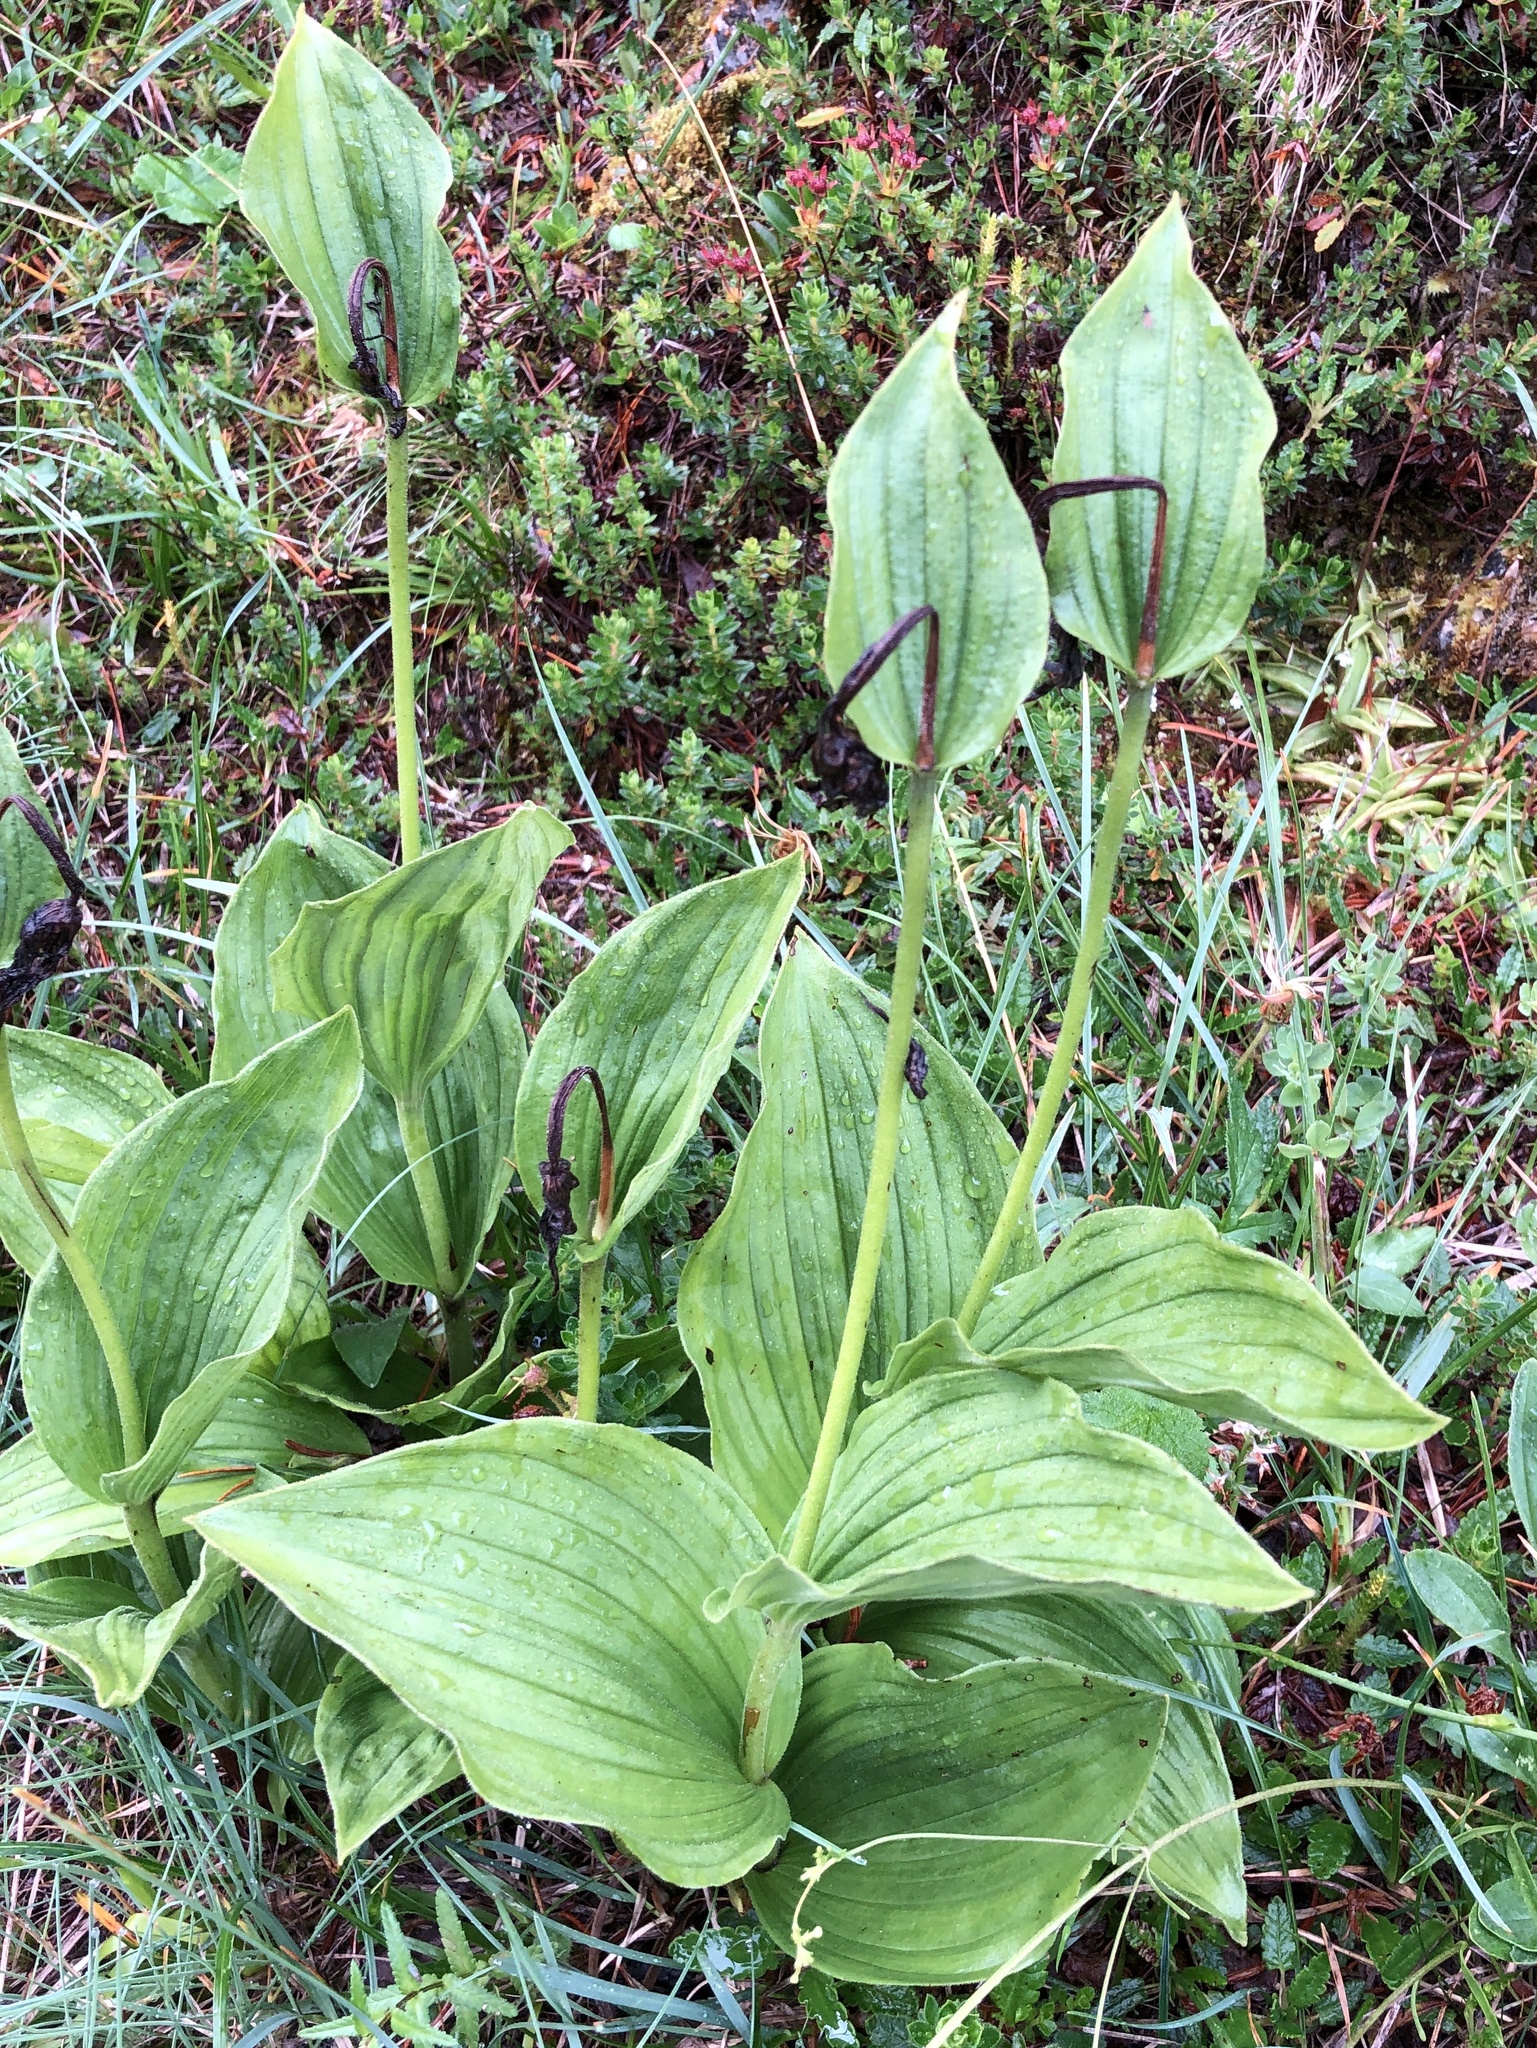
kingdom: Plantae
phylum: Tracheophyta
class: Liliopsida
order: Asparagales
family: Orchidaceae
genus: Cypripedium
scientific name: Cypripedium calceolus
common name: Lady's-slipper
